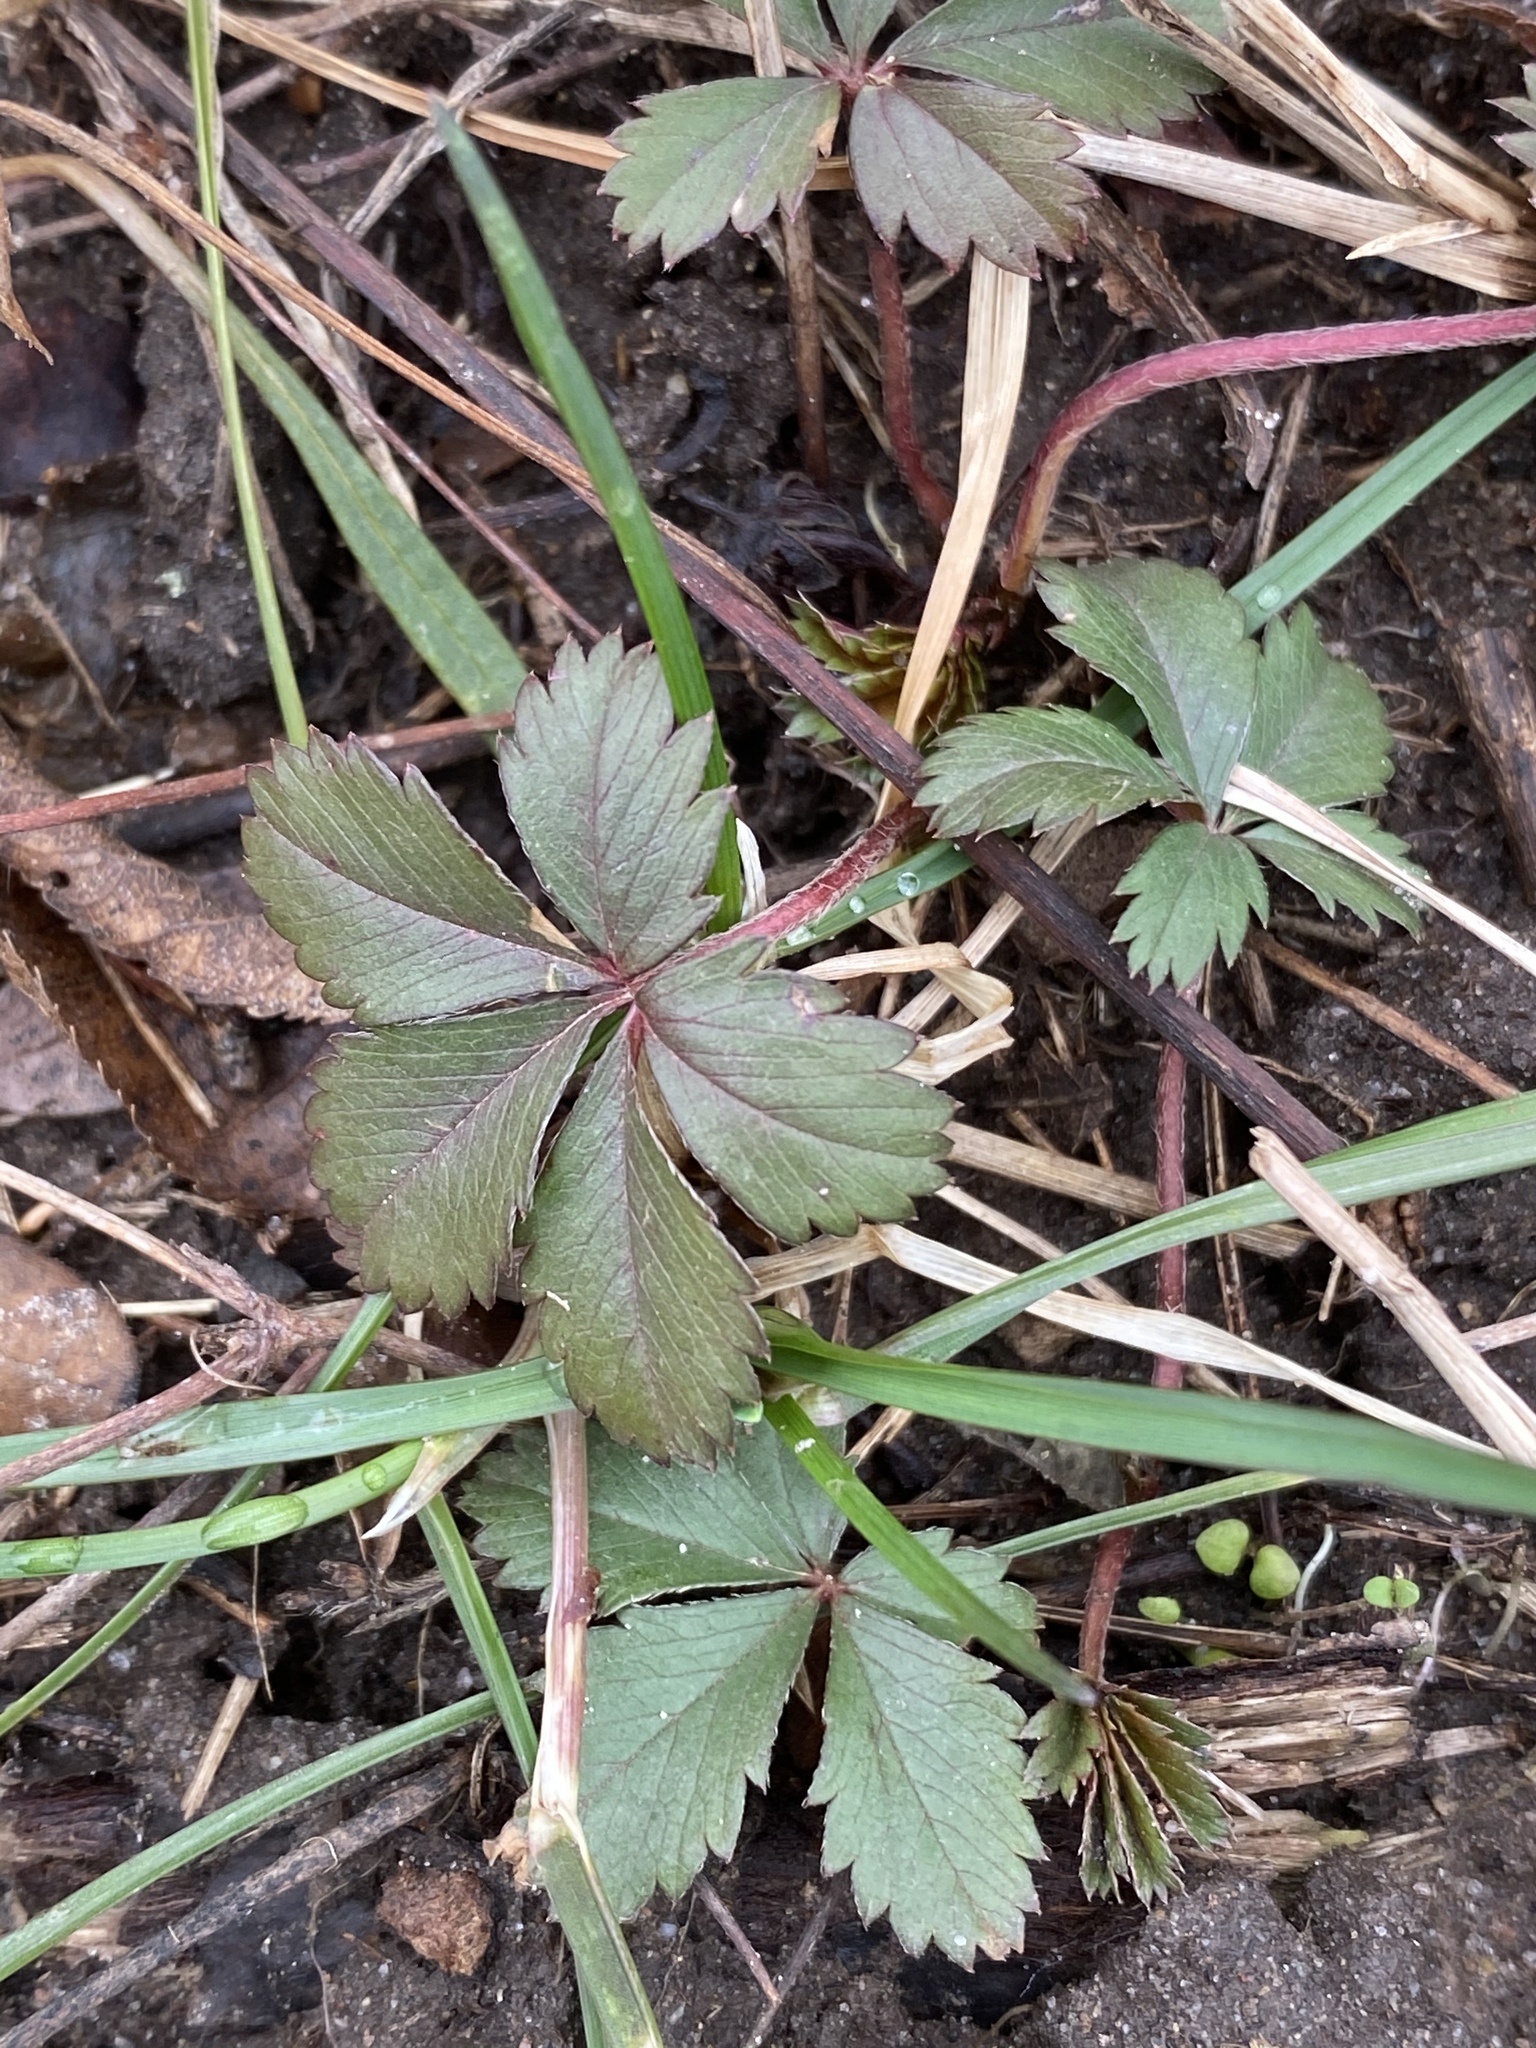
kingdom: Plantae
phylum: Tracheophyta
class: Magnoliopsida
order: Rosales
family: Rosaceae
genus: Potentilla
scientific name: Potentilla canadensis
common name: Canada cinquefoil
